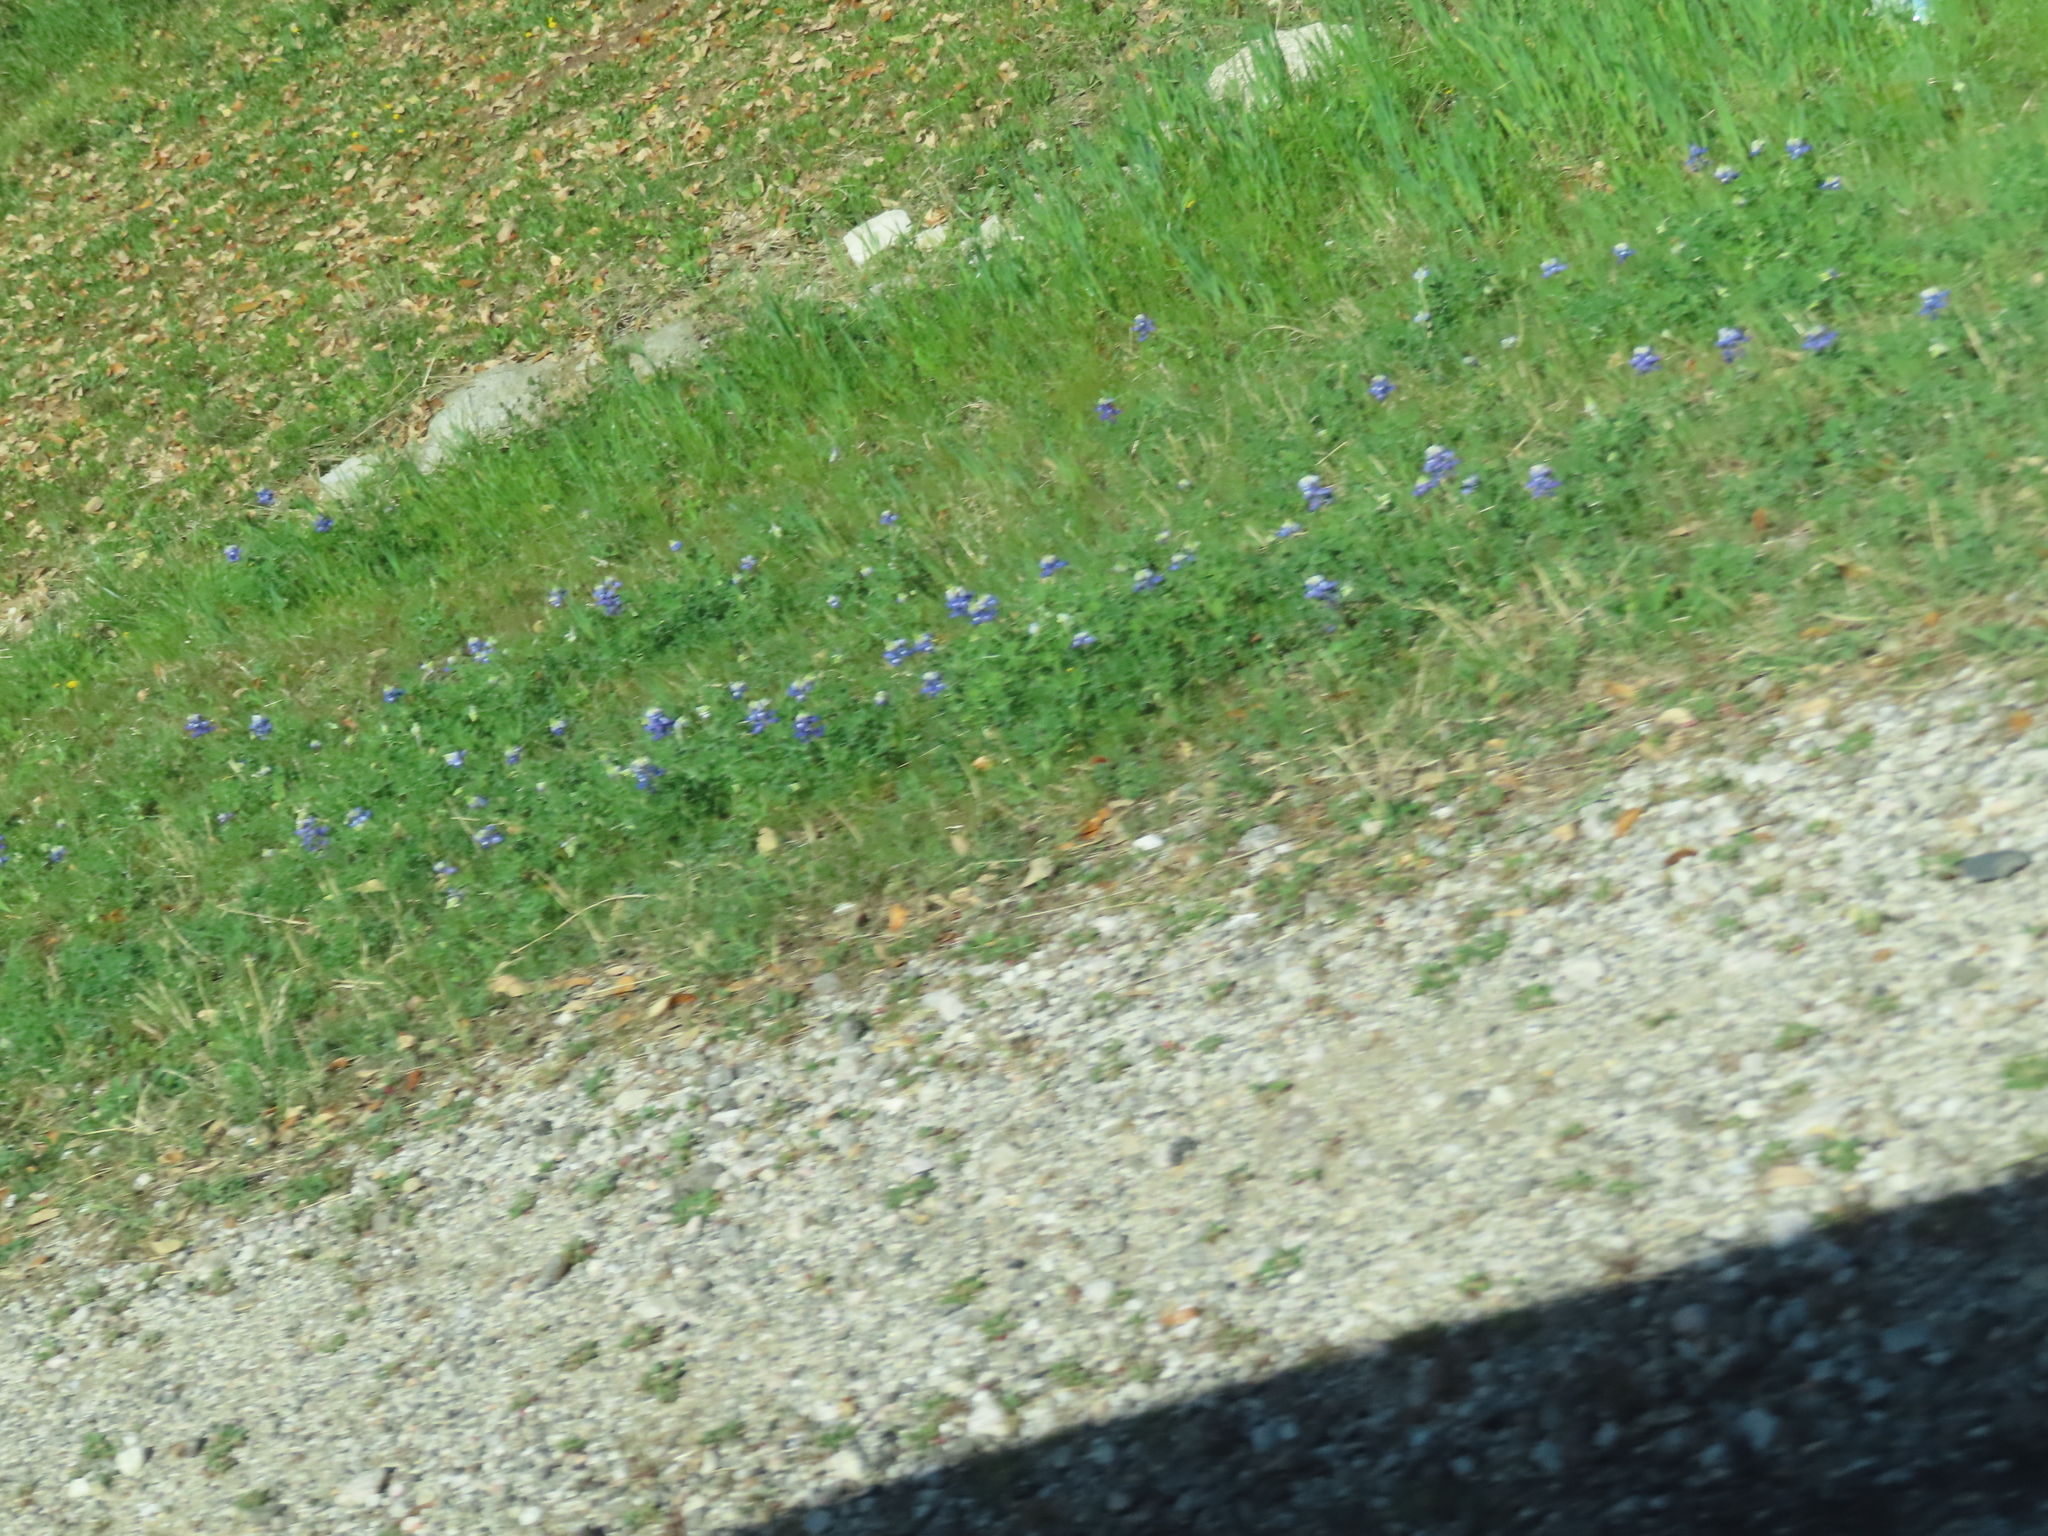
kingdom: Plantae
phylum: Tracheophyta
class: Magnoliopsida
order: Fabales
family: Fabaceae
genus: Lupinus
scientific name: Lupinus texensis
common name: Texas bluebonnet
